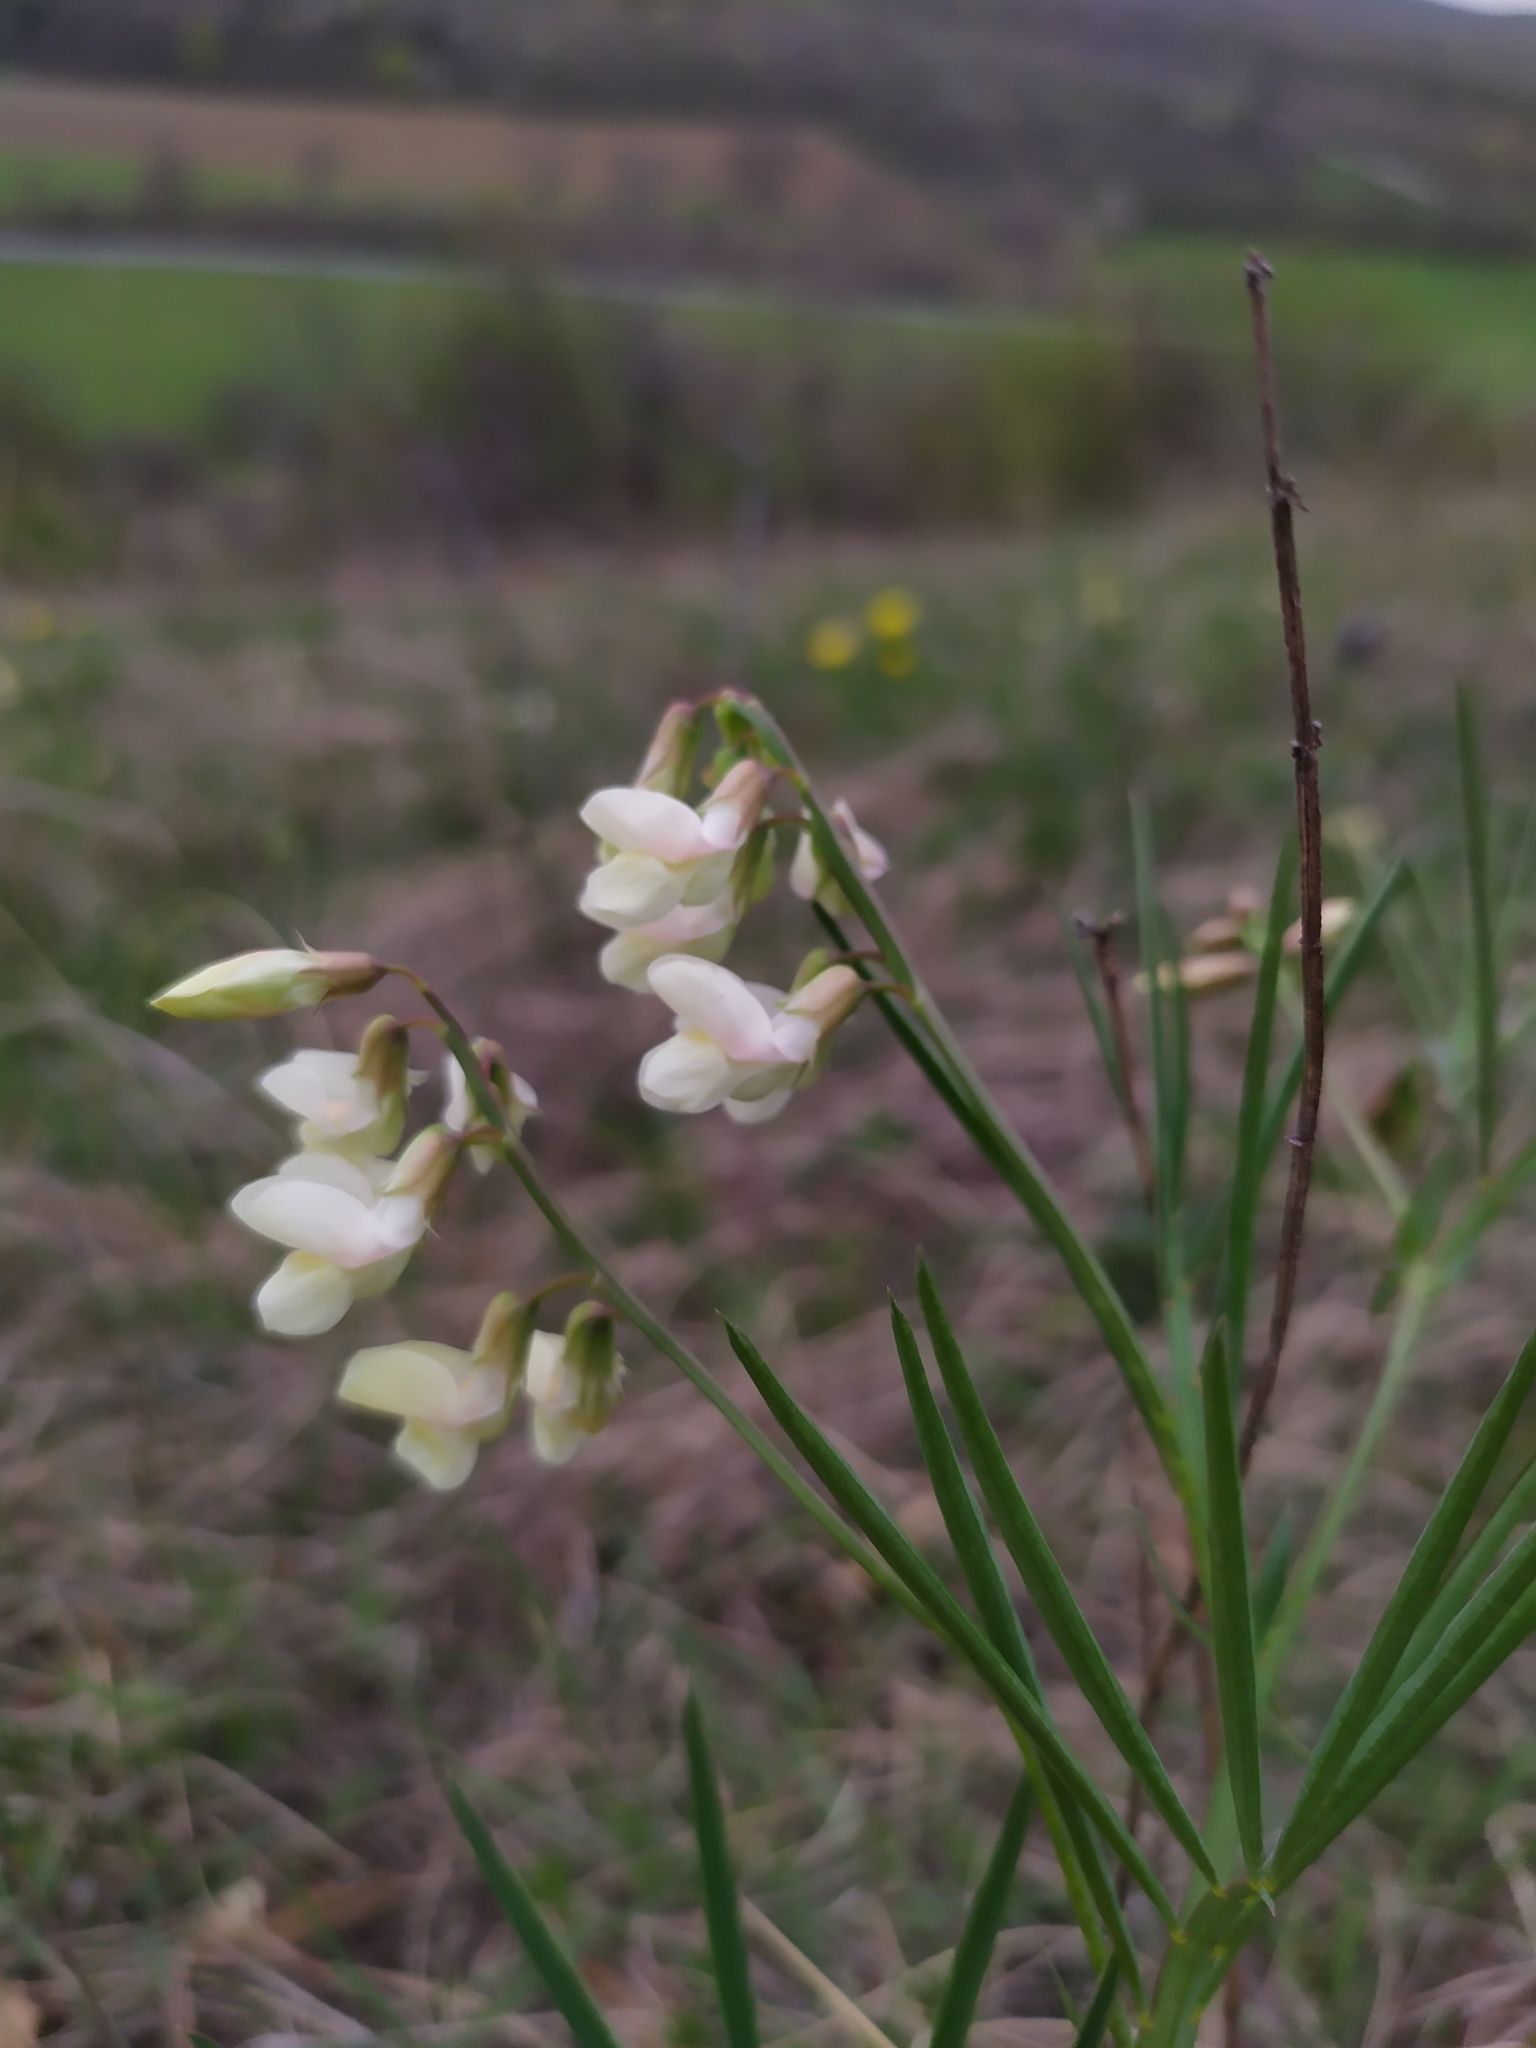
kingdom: Plantae
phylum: Tracheophyta
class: Magnoliopsida
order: Fabales
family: Fabaceae
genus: Lathyrus
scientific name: Lathyrus pannonicus
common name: Pea
